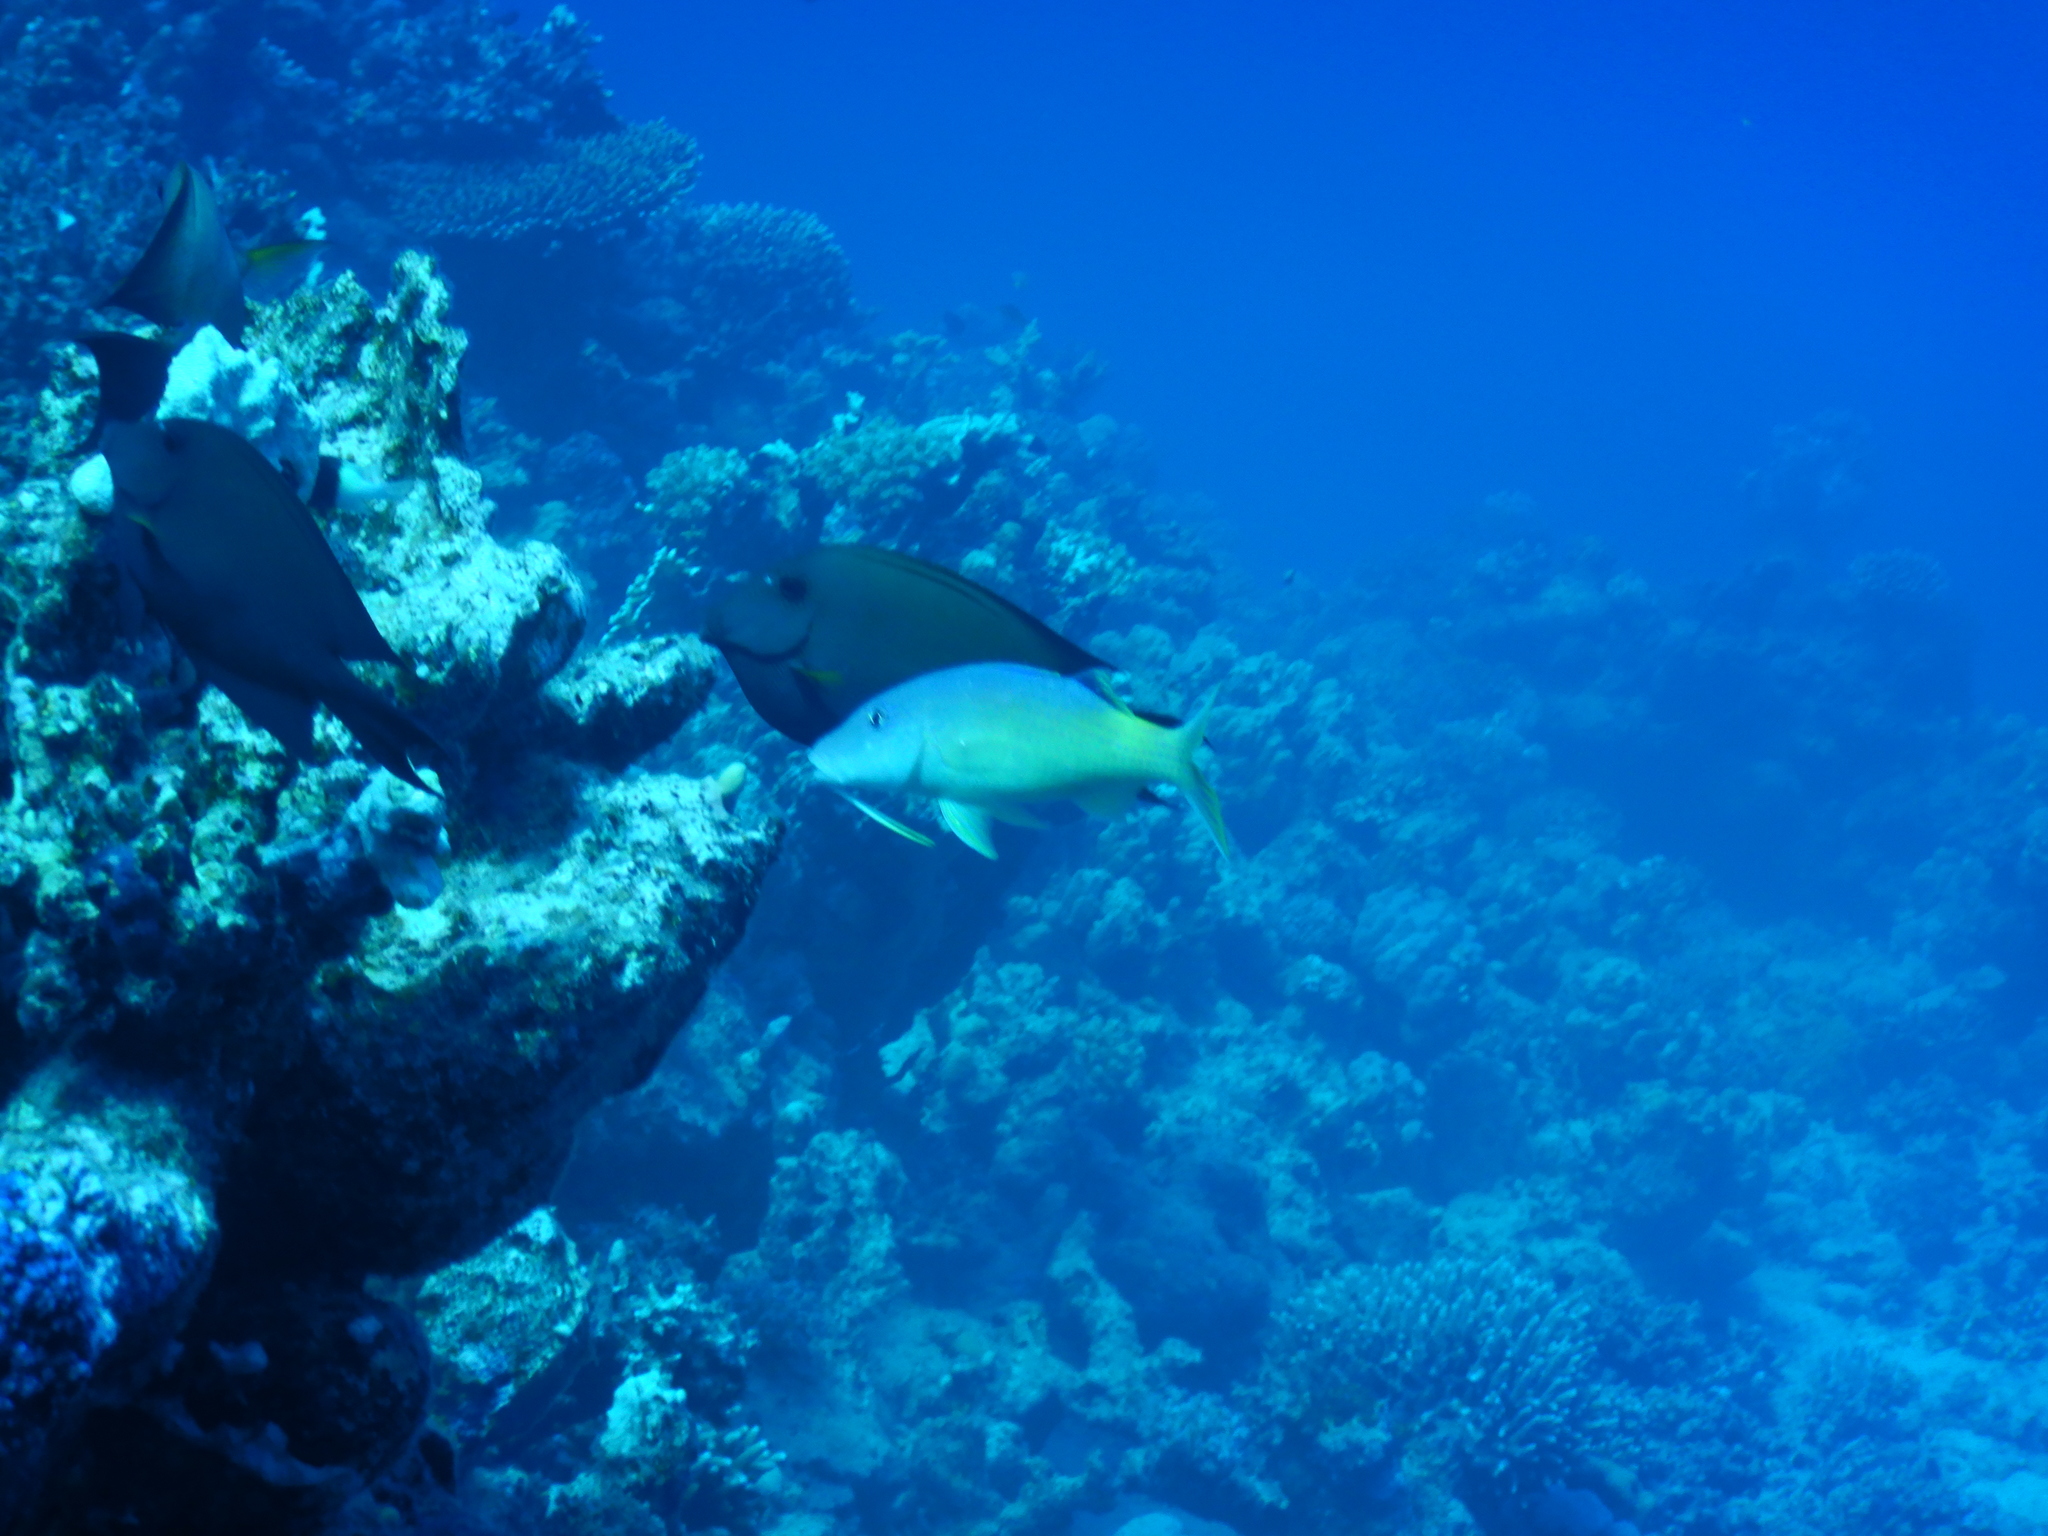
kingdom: Animalia
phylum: Chordata
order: Perciformes
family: Mullidae
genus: Parupeneus
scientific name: Parupeneus cyclostomus
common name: Goldsaddle goatfish
